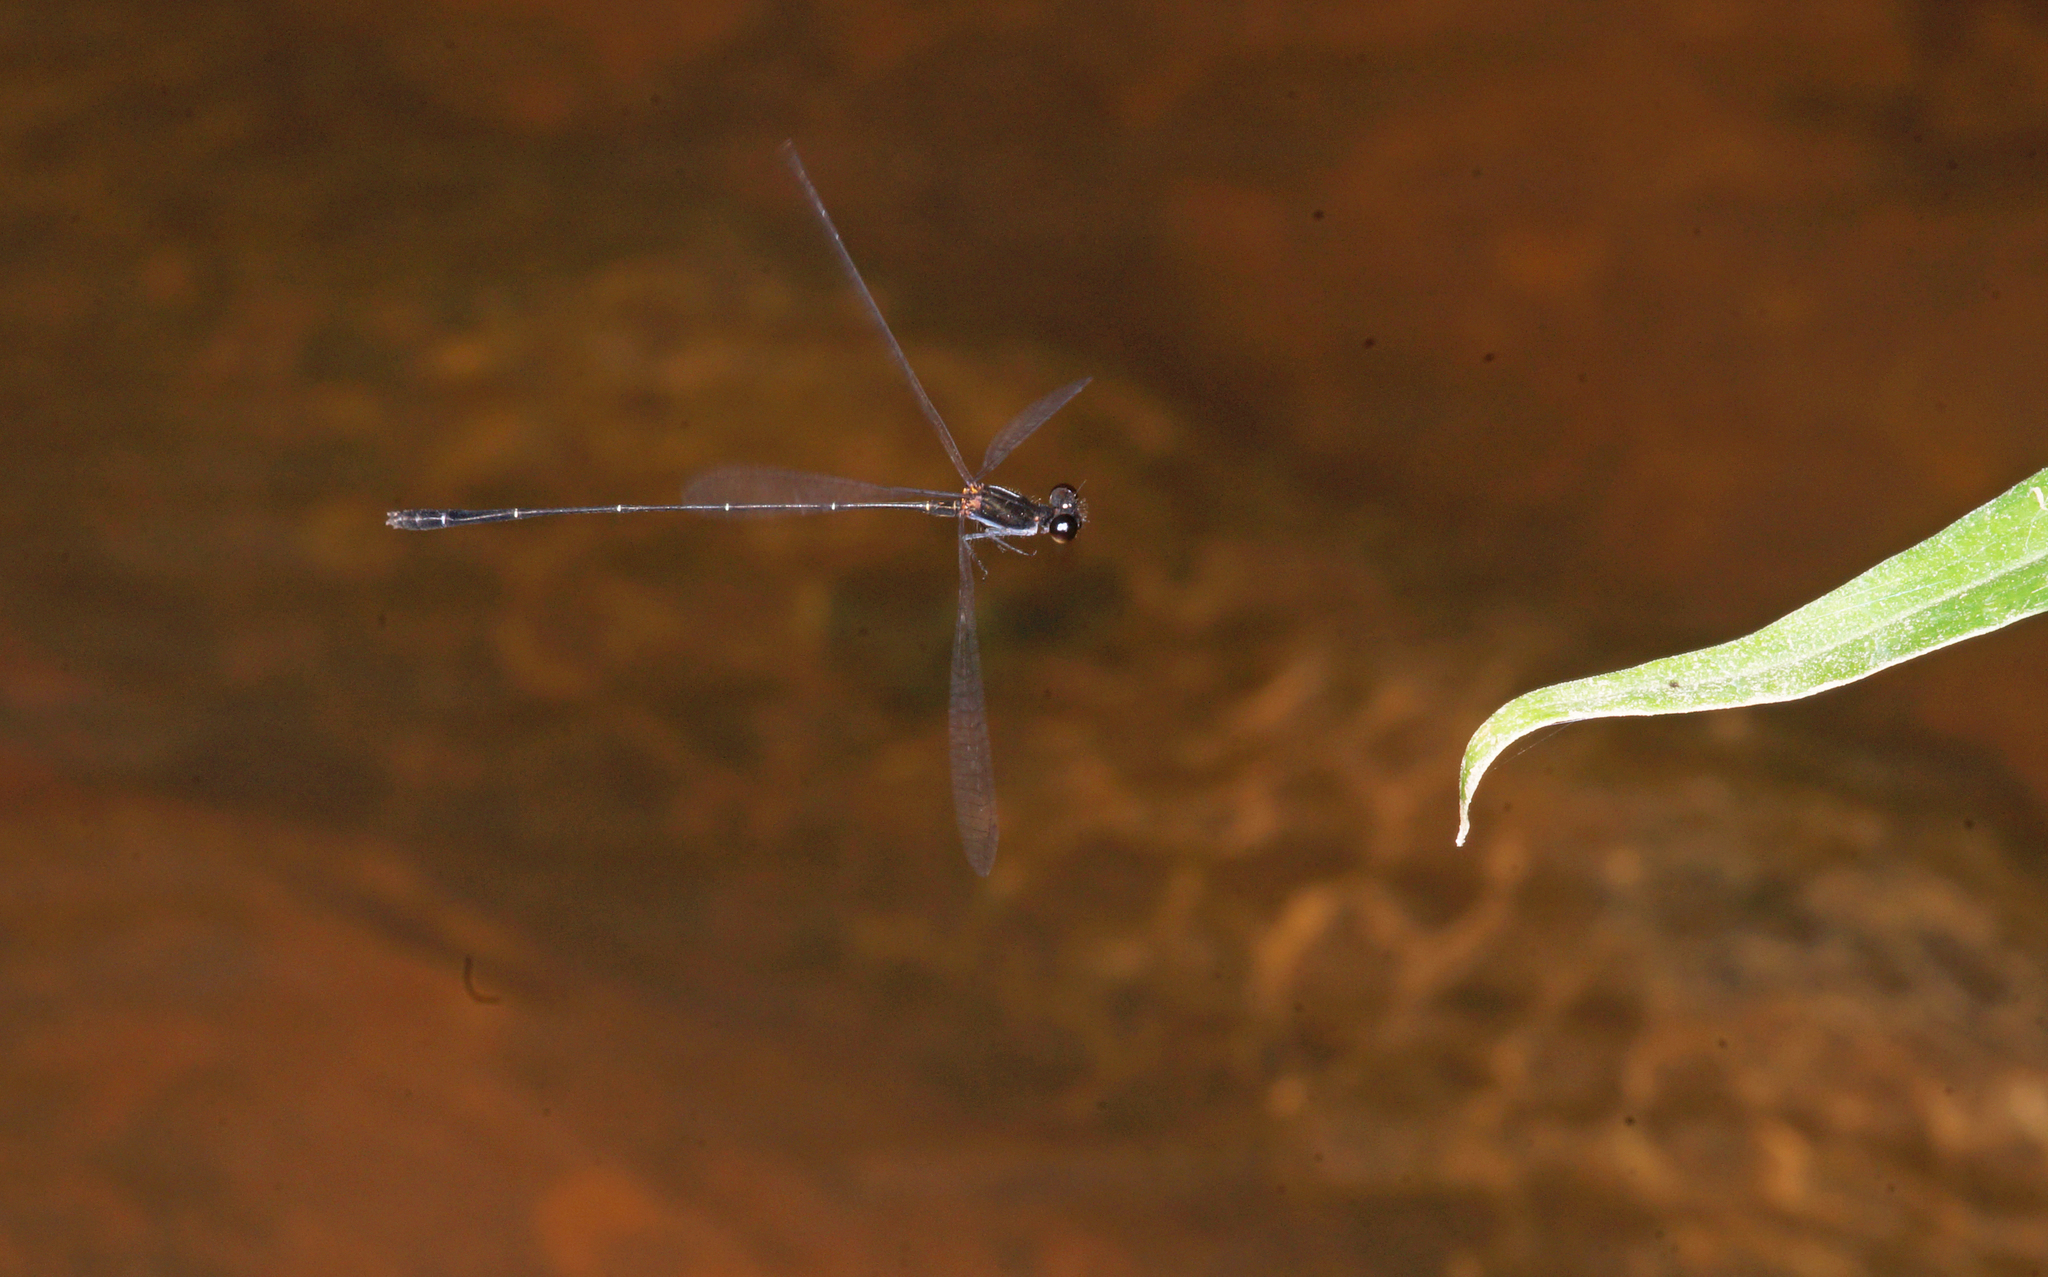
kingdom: Animalia
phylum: Arthropoda
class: Insecta
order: Odonata
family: Platycnemididae
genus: Prodasineura
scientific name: Prodasineura autumnalis
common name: Black threadtail
